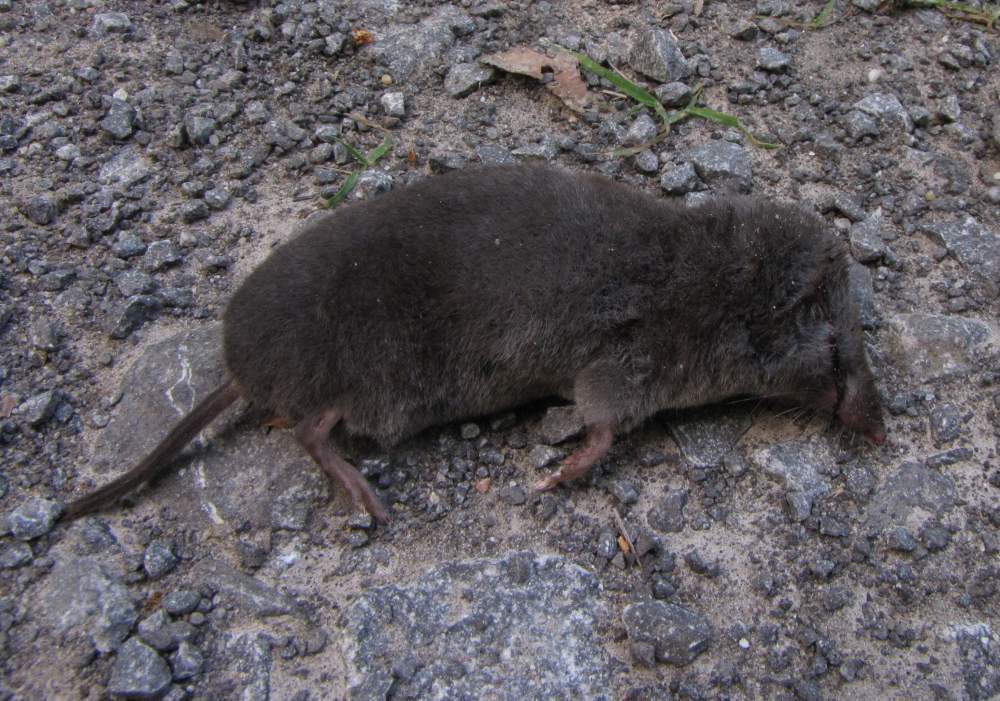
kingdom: Animalia
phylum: Chordata
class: Mammalia
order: Soricomorpha
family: Soricidae
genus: Blarina
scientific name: Blarina brevicauda
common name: Northern short-tailed shrew
